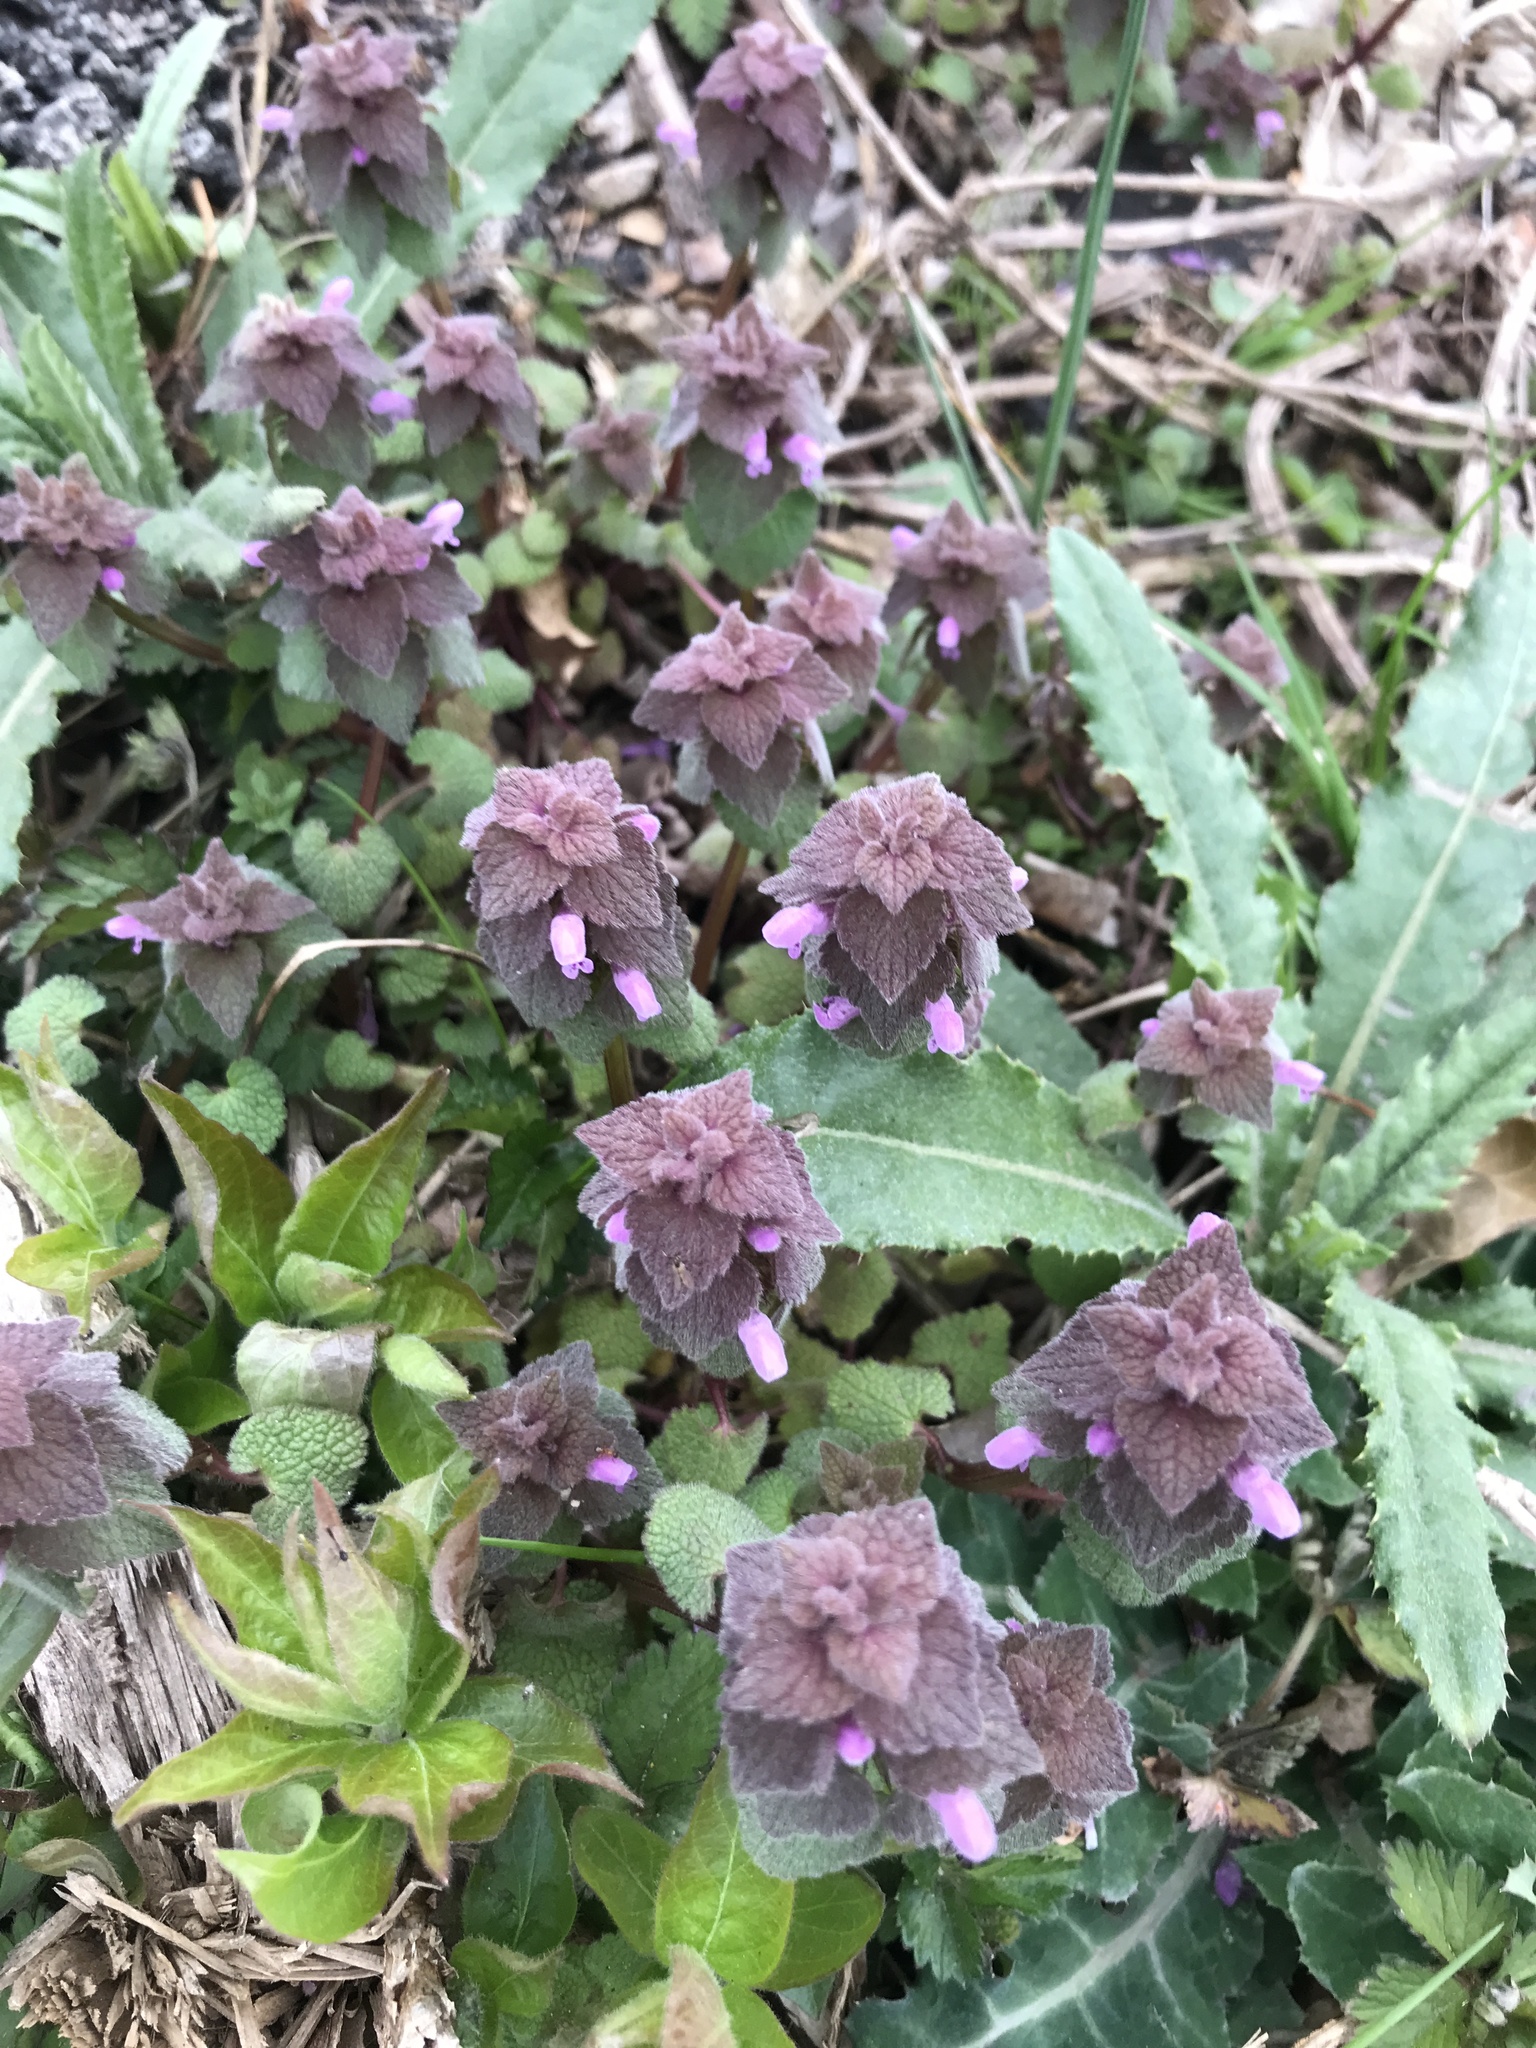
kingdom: Plantae
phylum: Tracheophyta
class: Magnoliopsida
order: Lamiales
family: Lamiaceae
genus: Lamium
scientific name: Lamium purpureum
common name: Red dead-nettle
